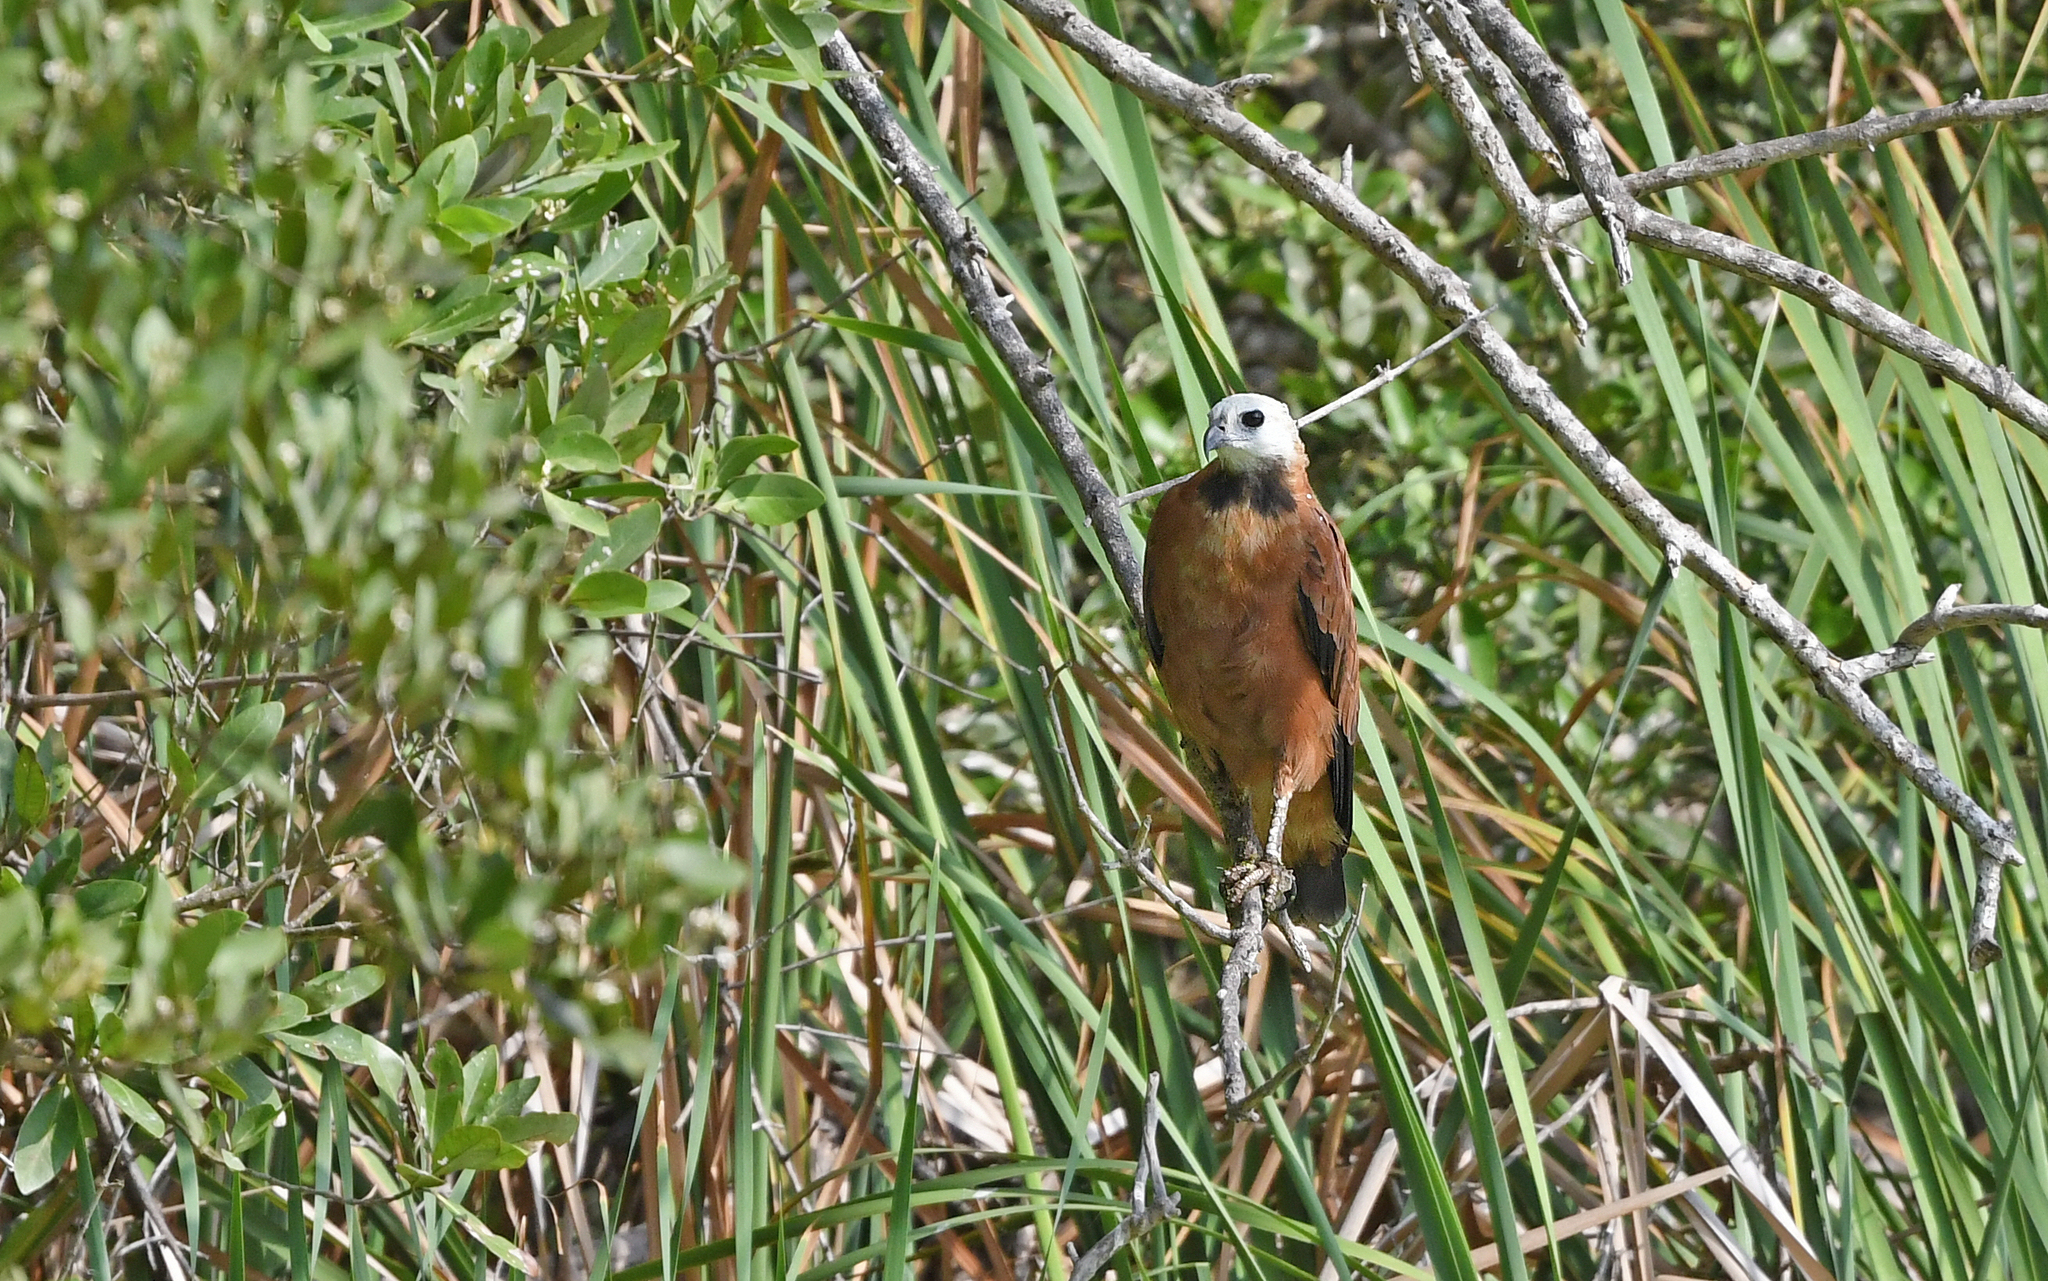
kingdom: Animalia
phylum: Chordata
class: Aves
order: Accipitriformes
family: Accipitridae
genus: Busarellus
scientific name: Busarellus nigricollis
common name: Black-collared hawk
